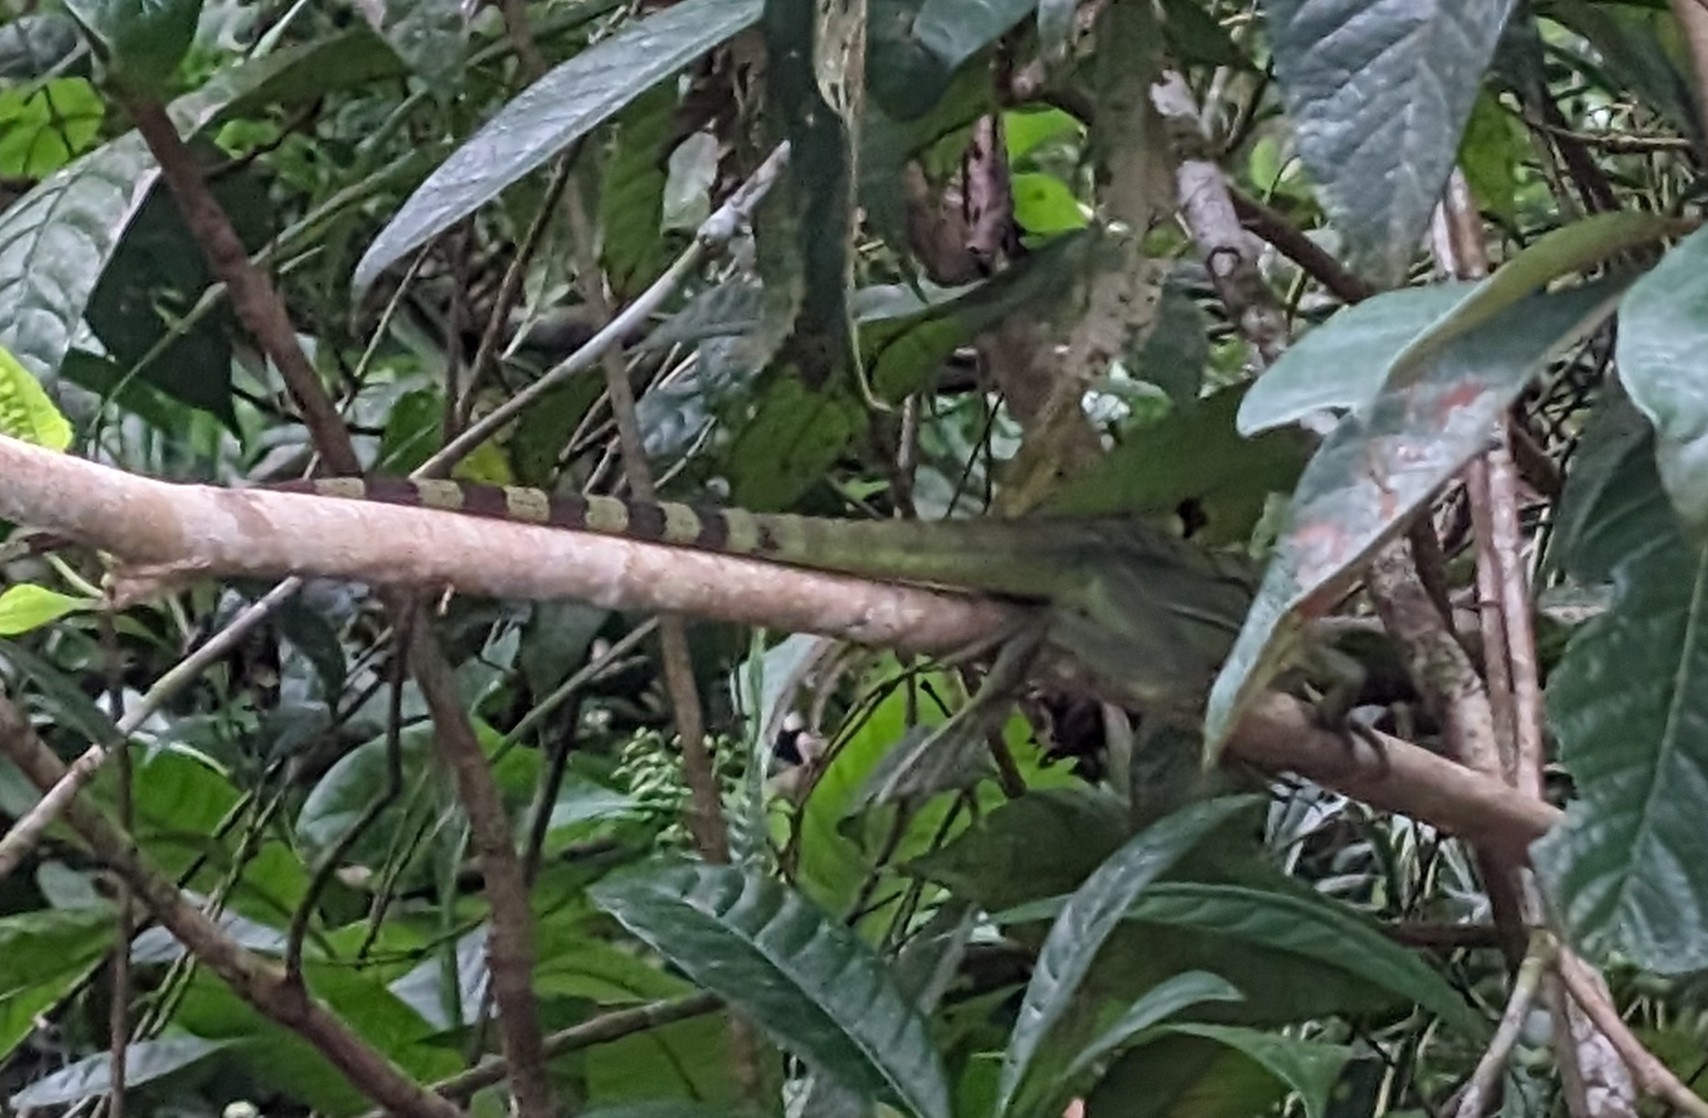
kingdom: Animalia
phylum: Chordata
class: Squamata
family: Corytophanidae
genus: Basiliscus
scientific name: Basiliscus plumifrons
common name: Green basilisk
